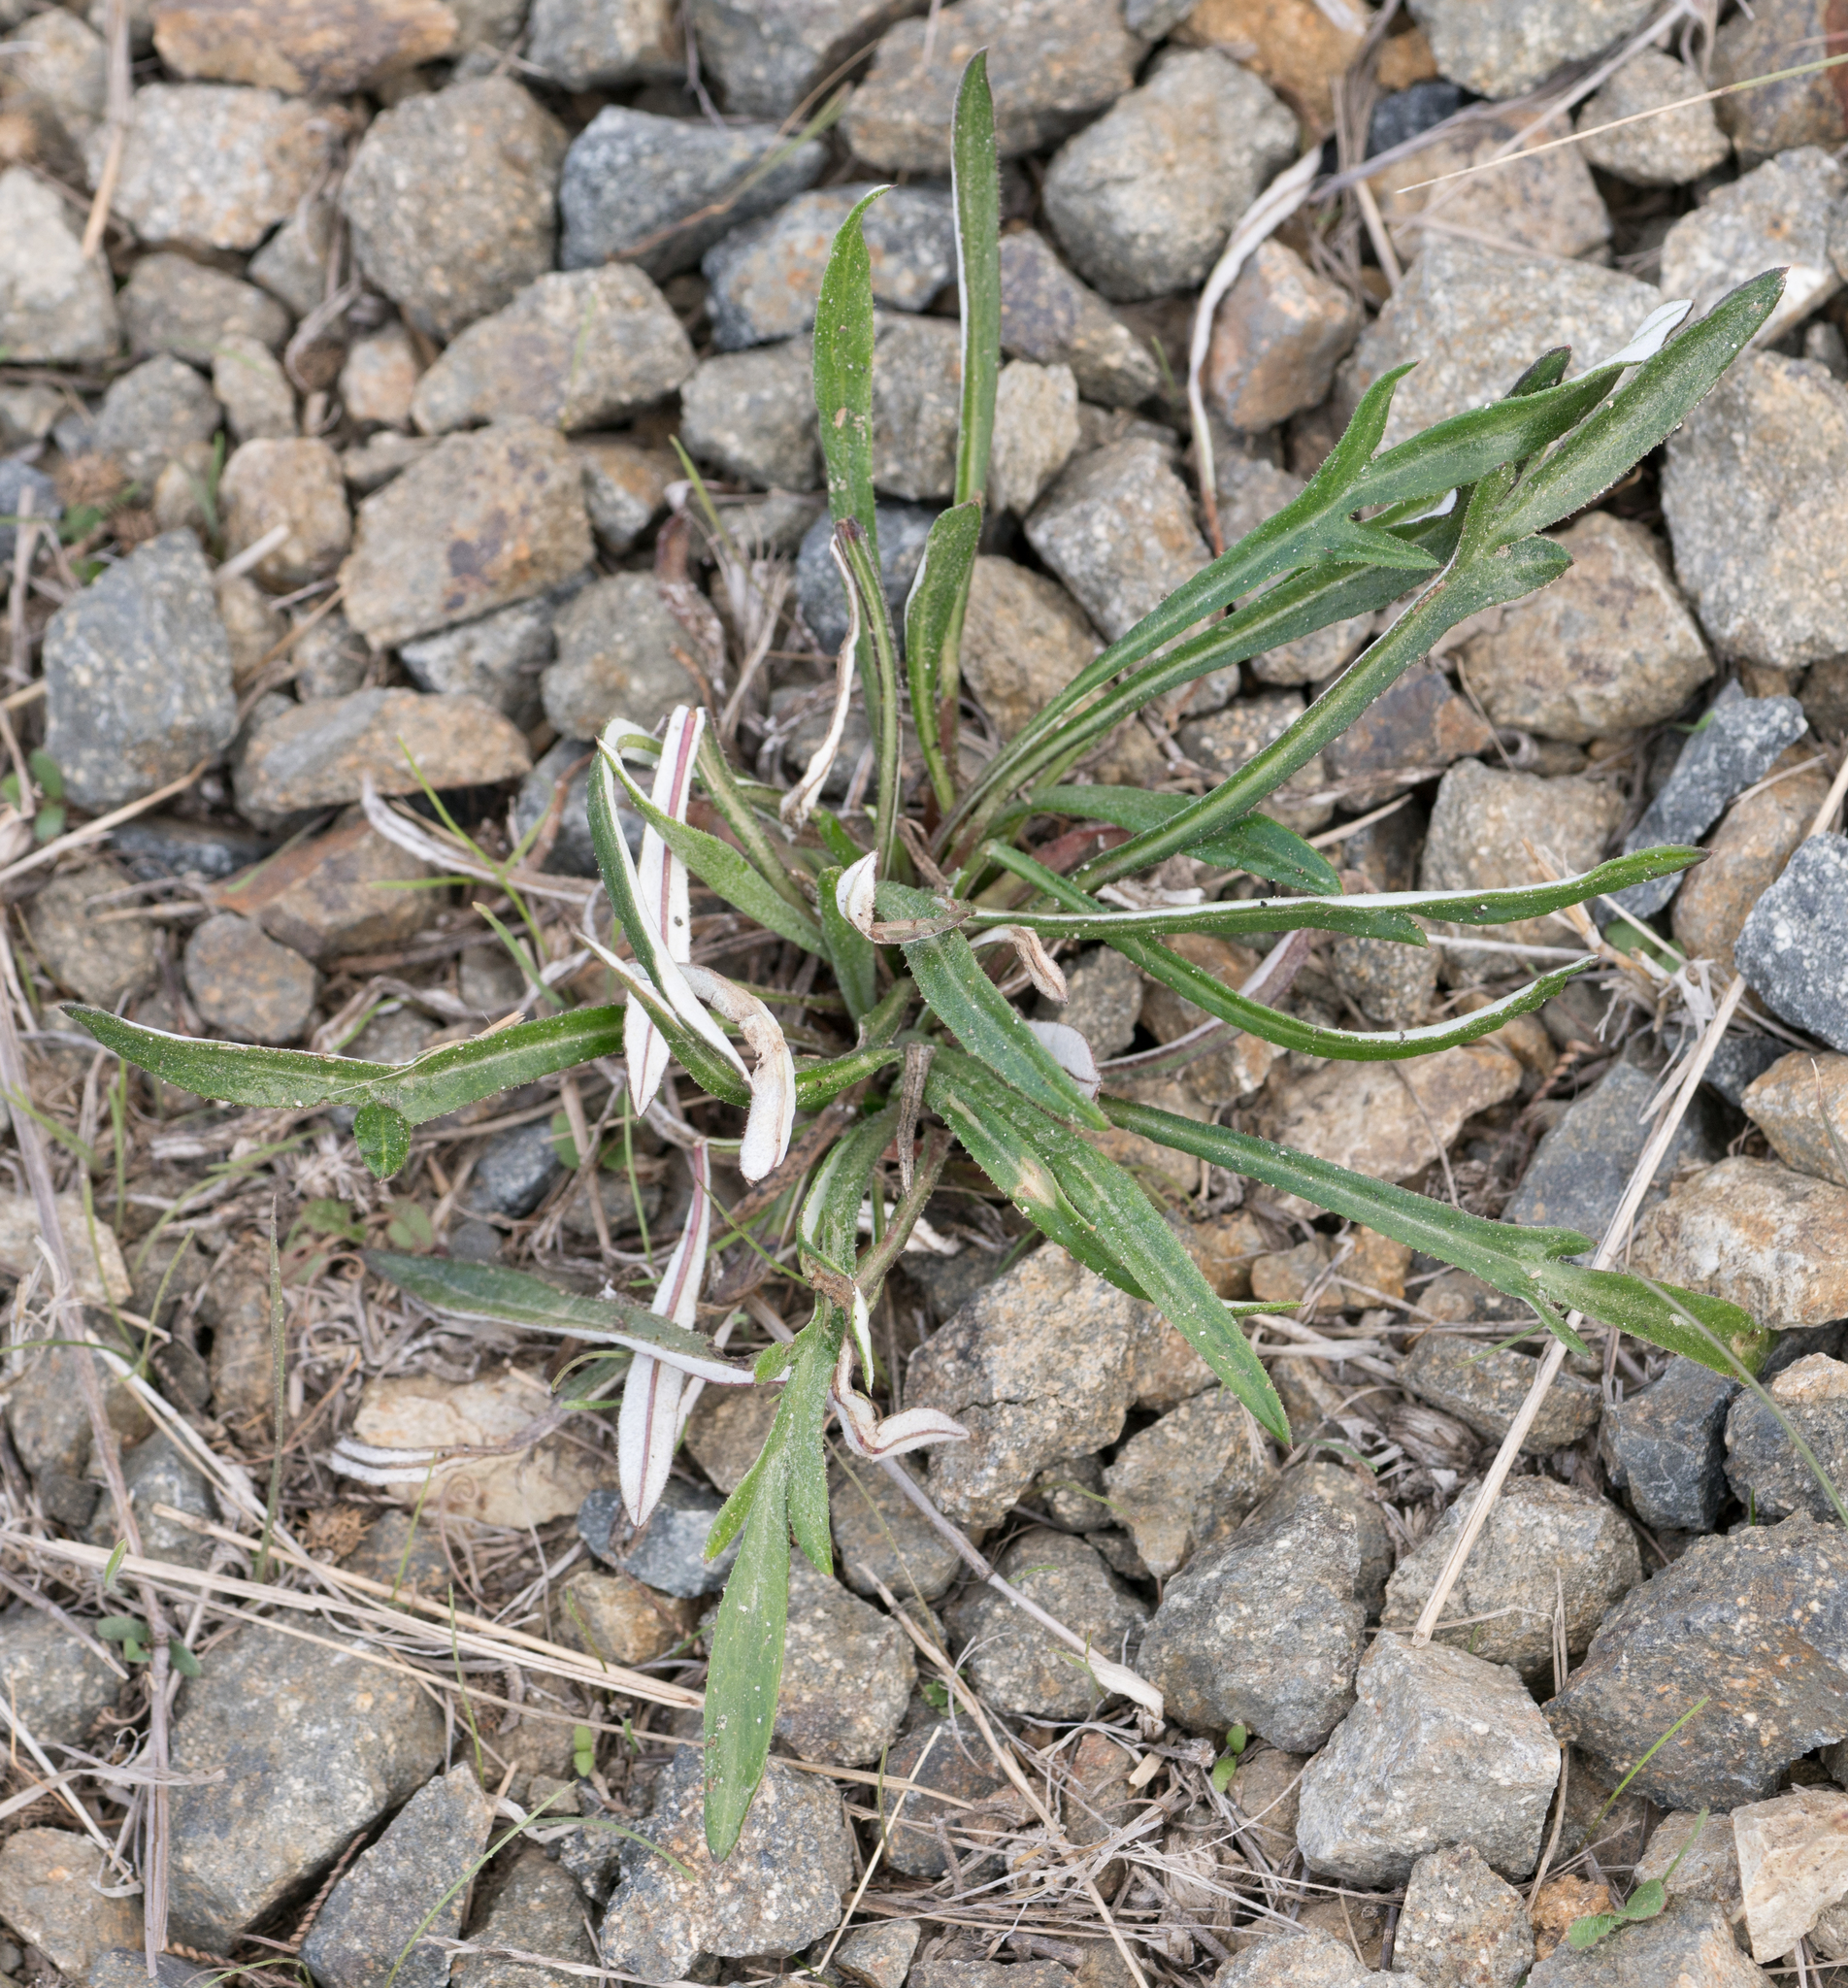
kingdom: Plantae
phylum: Tracheophyta
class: Magnoliopsida
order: Asterales
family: Asteraceae
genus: Gazania
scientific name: Gazania linearis
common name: Treasureflower
